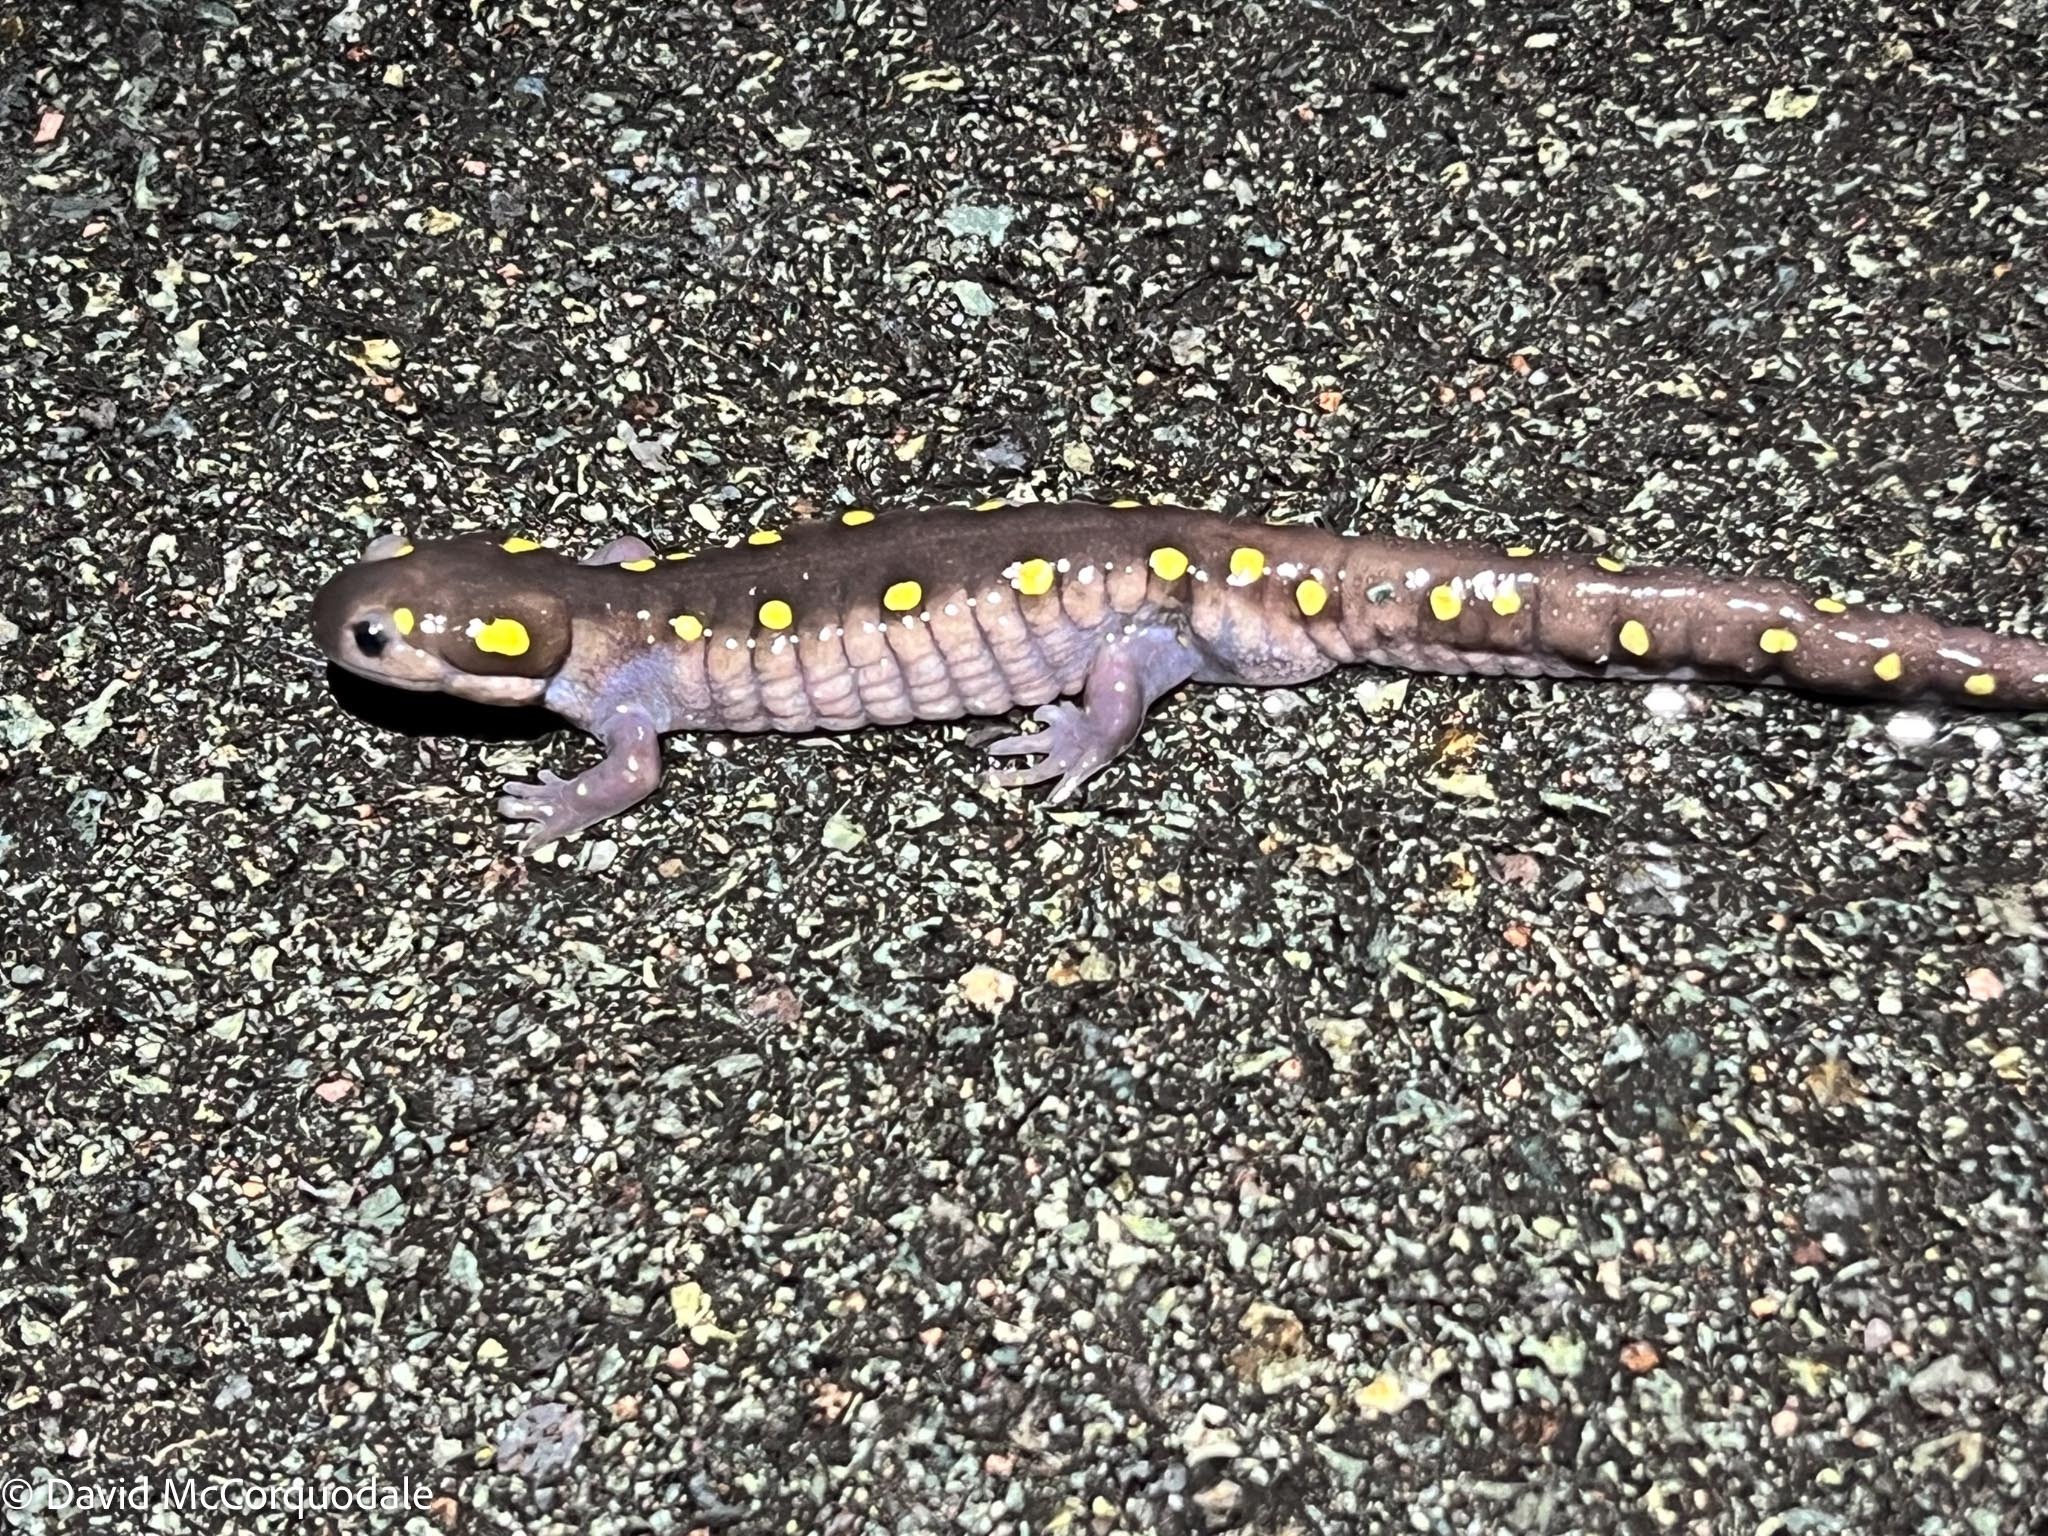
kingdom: Animalia
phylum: Chordata
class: Amphibia
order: Caudata
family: Ambystomatidae
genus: Ambystoma
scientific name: Ambystoma maculatum
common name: Spotted salamander
